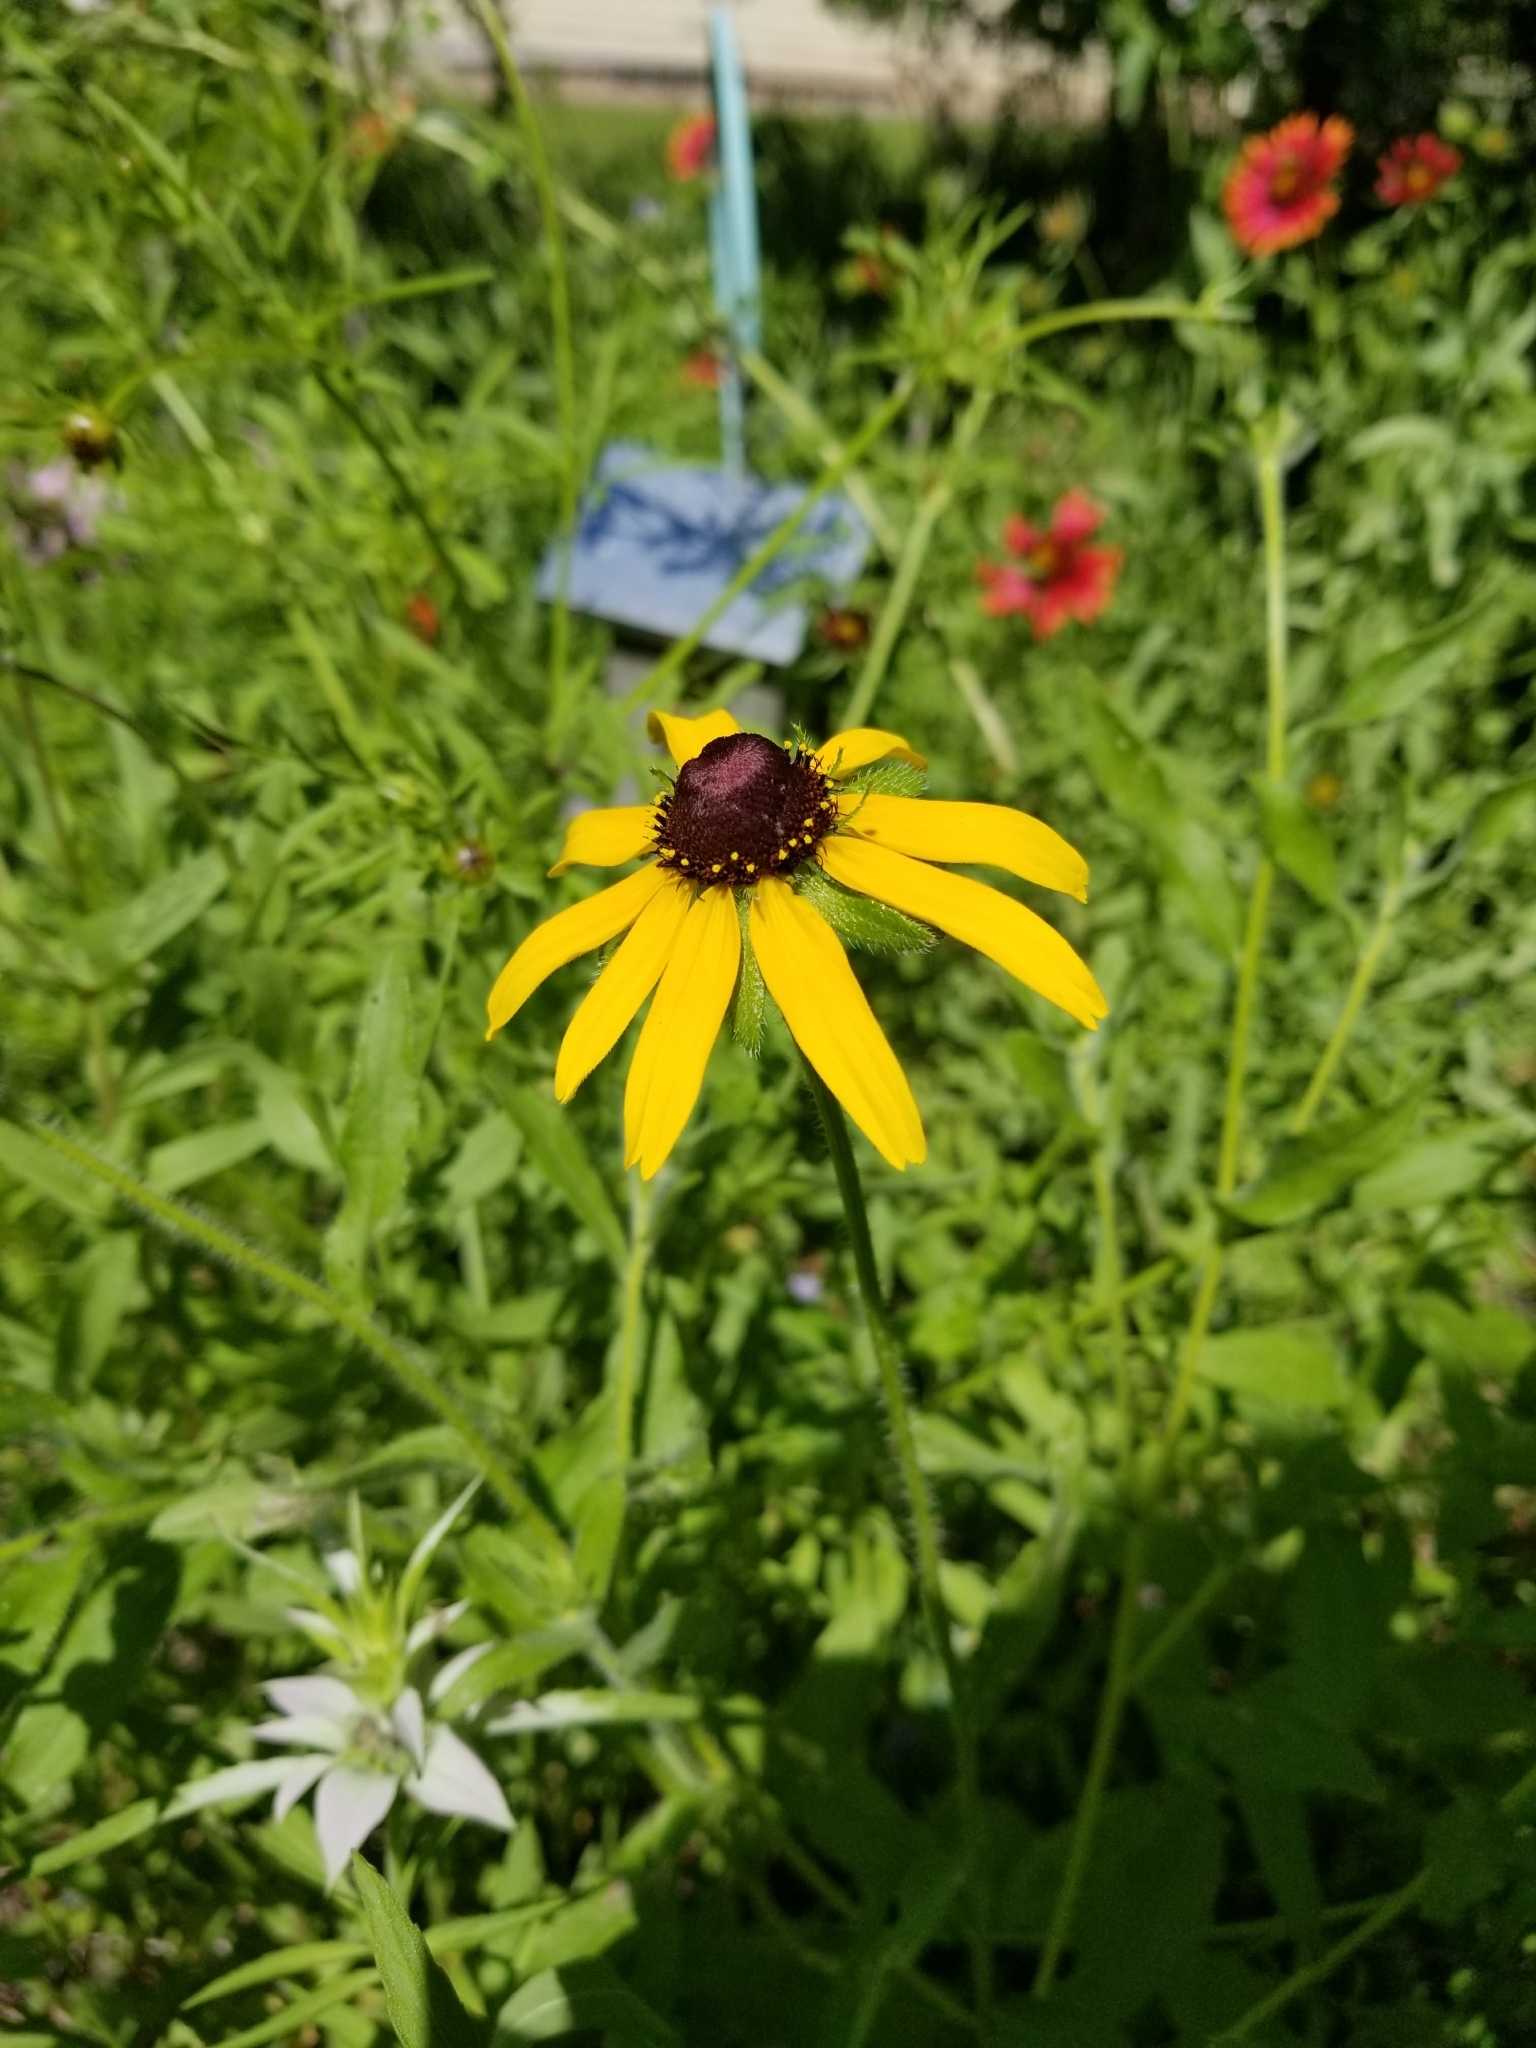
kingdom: Plantae
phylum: Tracheophyta
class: Magnoliopsida
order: Asterales
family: Asteraceae
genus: Rudbeckia
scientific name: Rudbeckia hirta
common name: Black-eyed-susan
